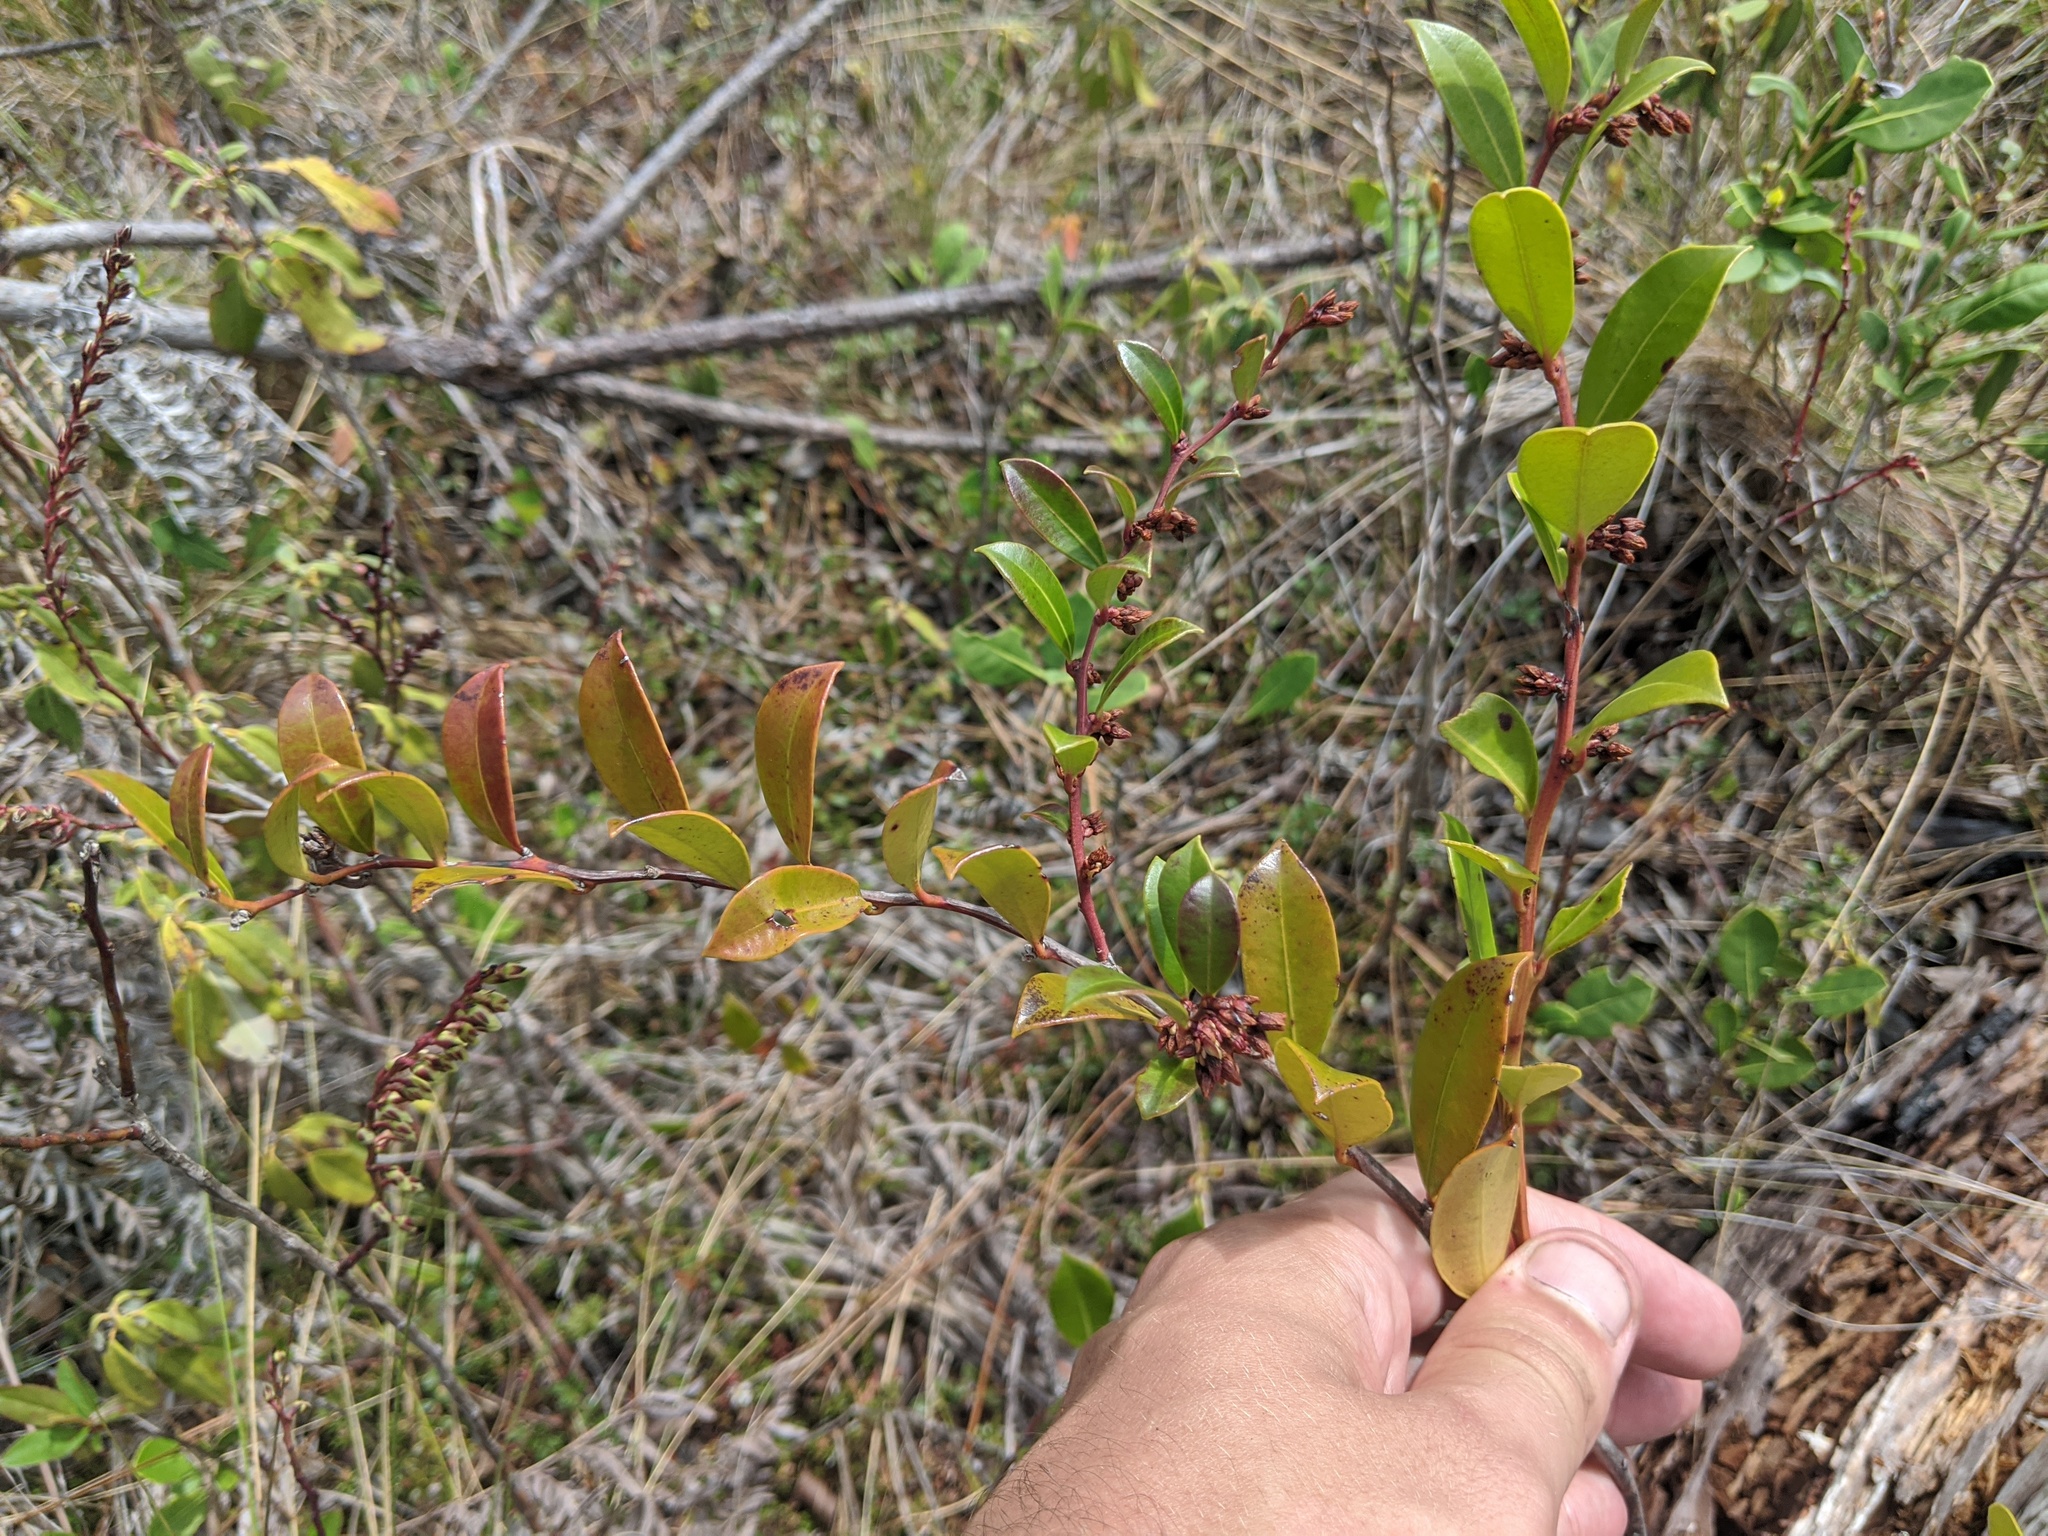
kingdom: Plantae
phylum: Tracheophyta
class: Magnoliopsida
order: Ericales
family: Ericaceae
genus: Lyonia
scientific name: Lyonia lucida
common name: Fetterbush
